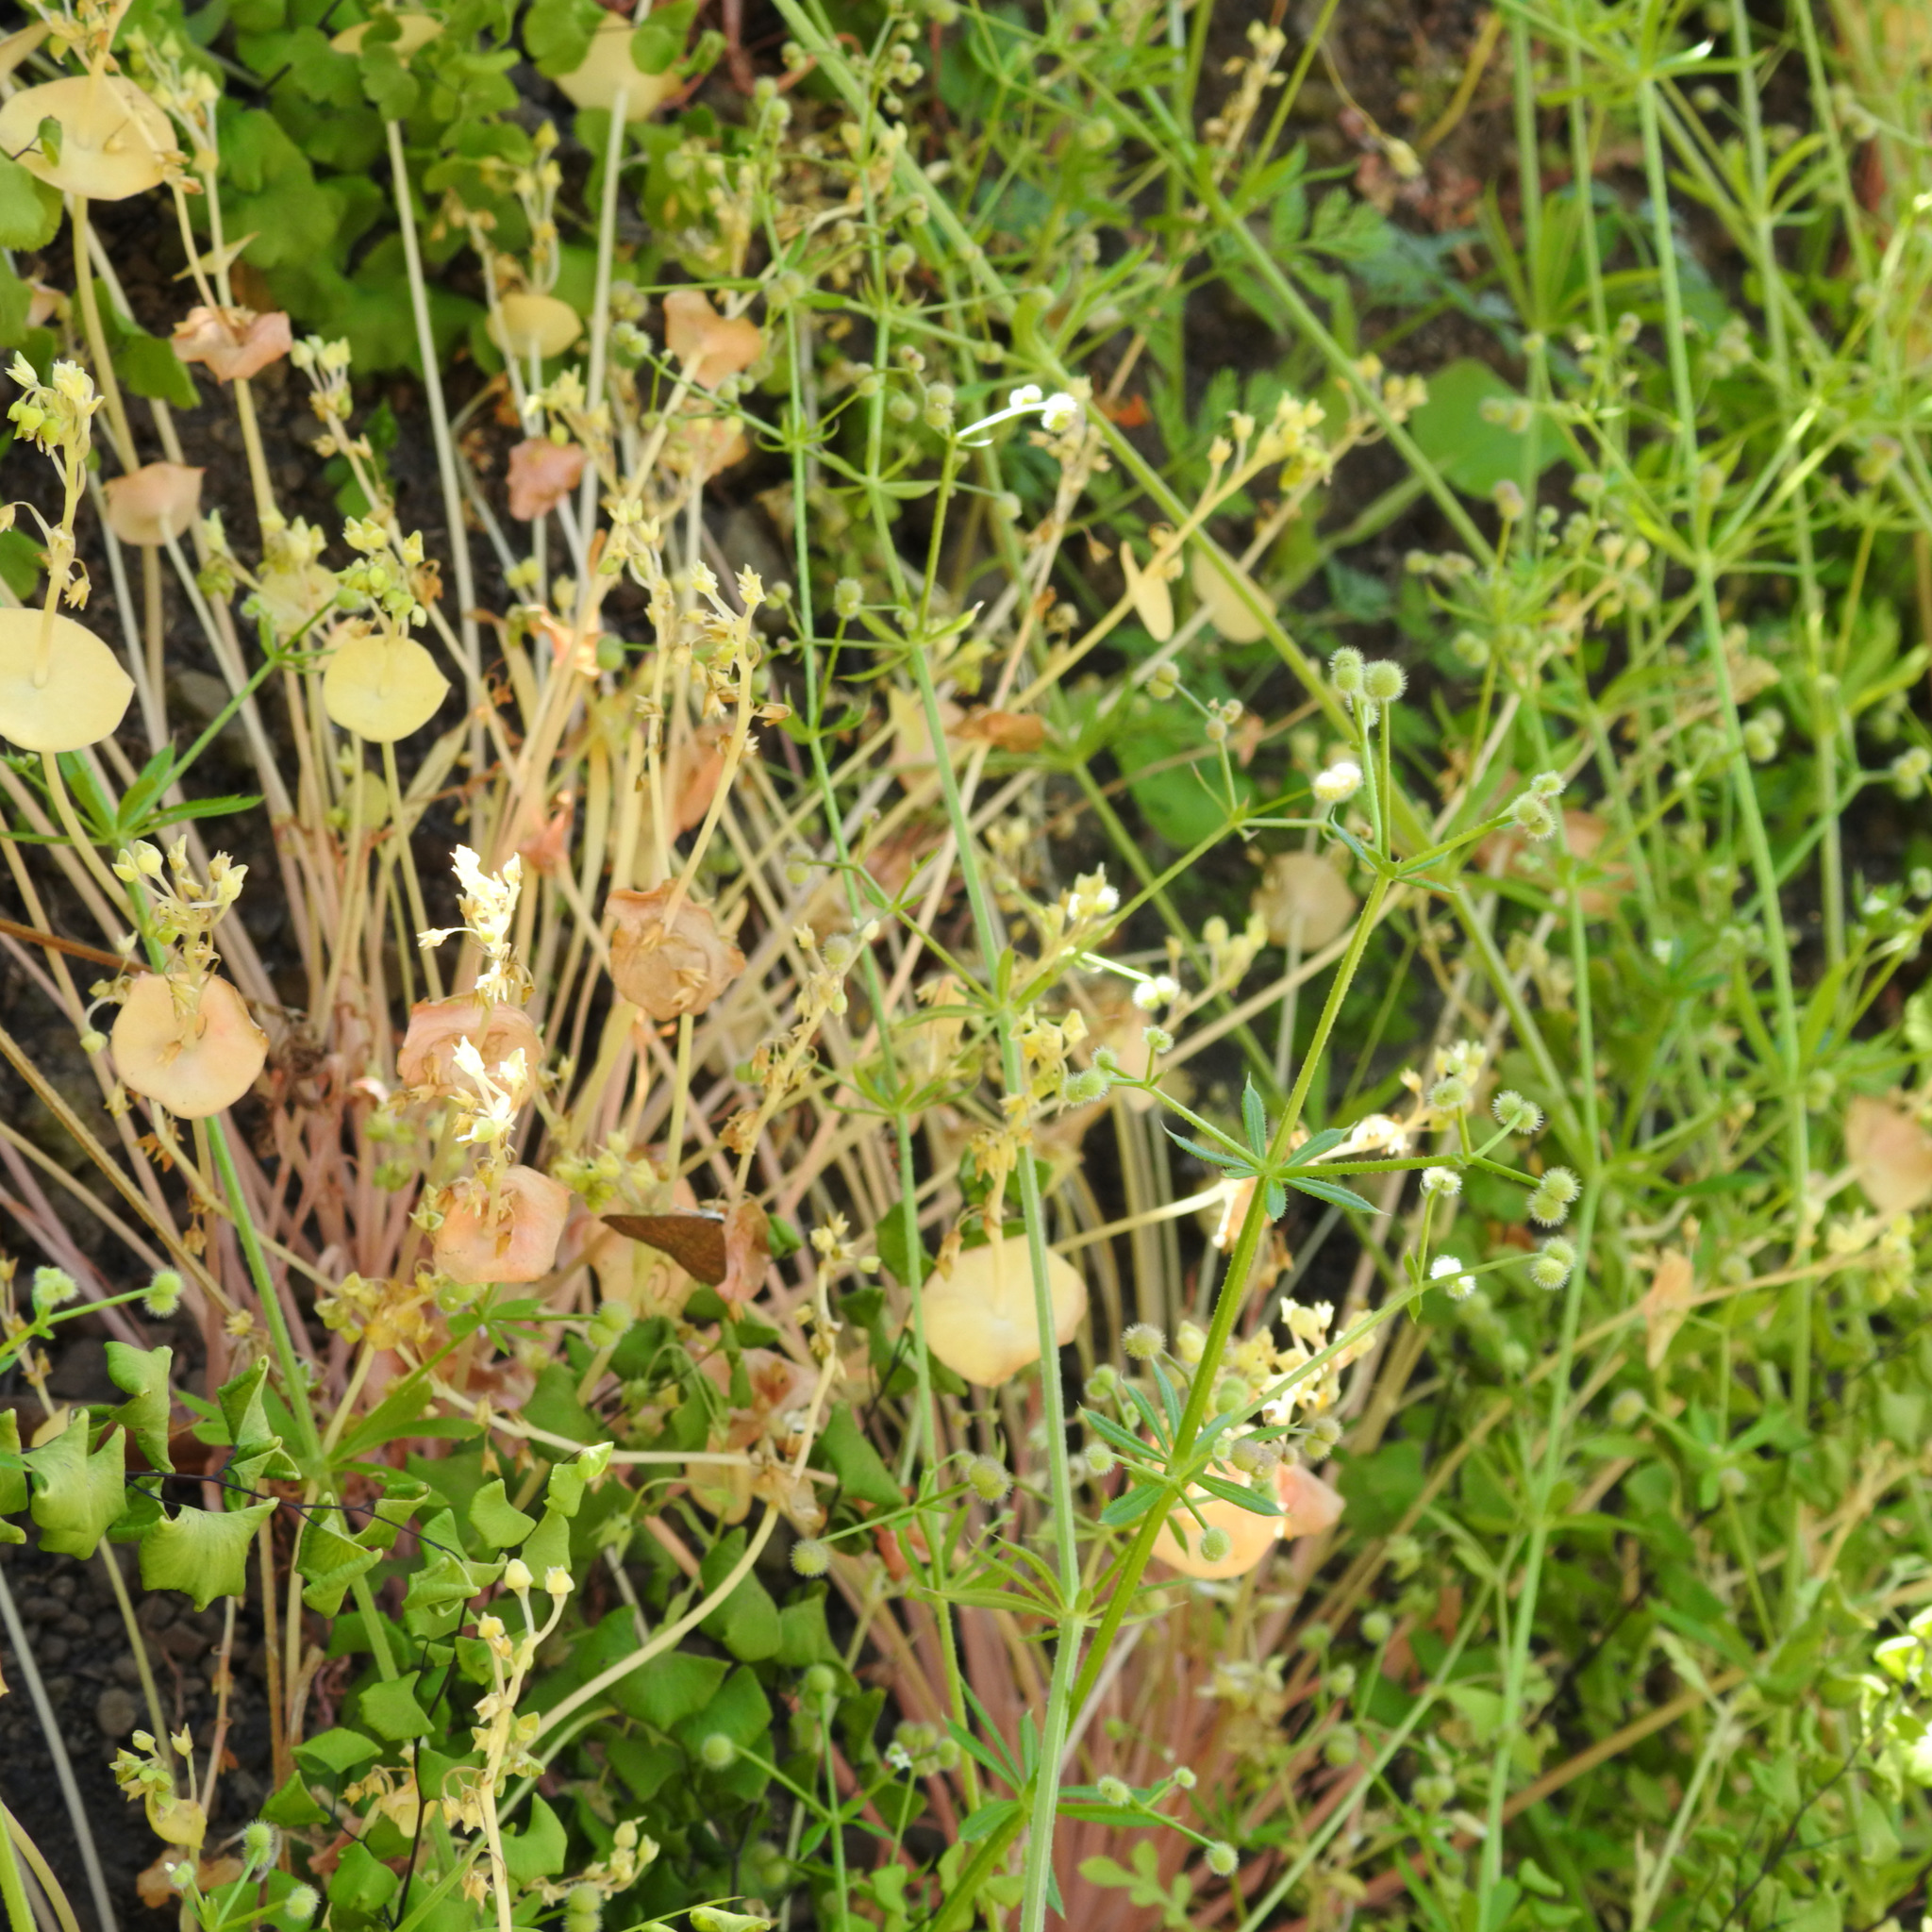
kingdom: Plantae
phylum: Tracheophyta
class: Magnoliopsida
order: Gentianales
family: Rubiaceae
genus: Galium
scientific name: Galium aparine
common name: Cleavers
